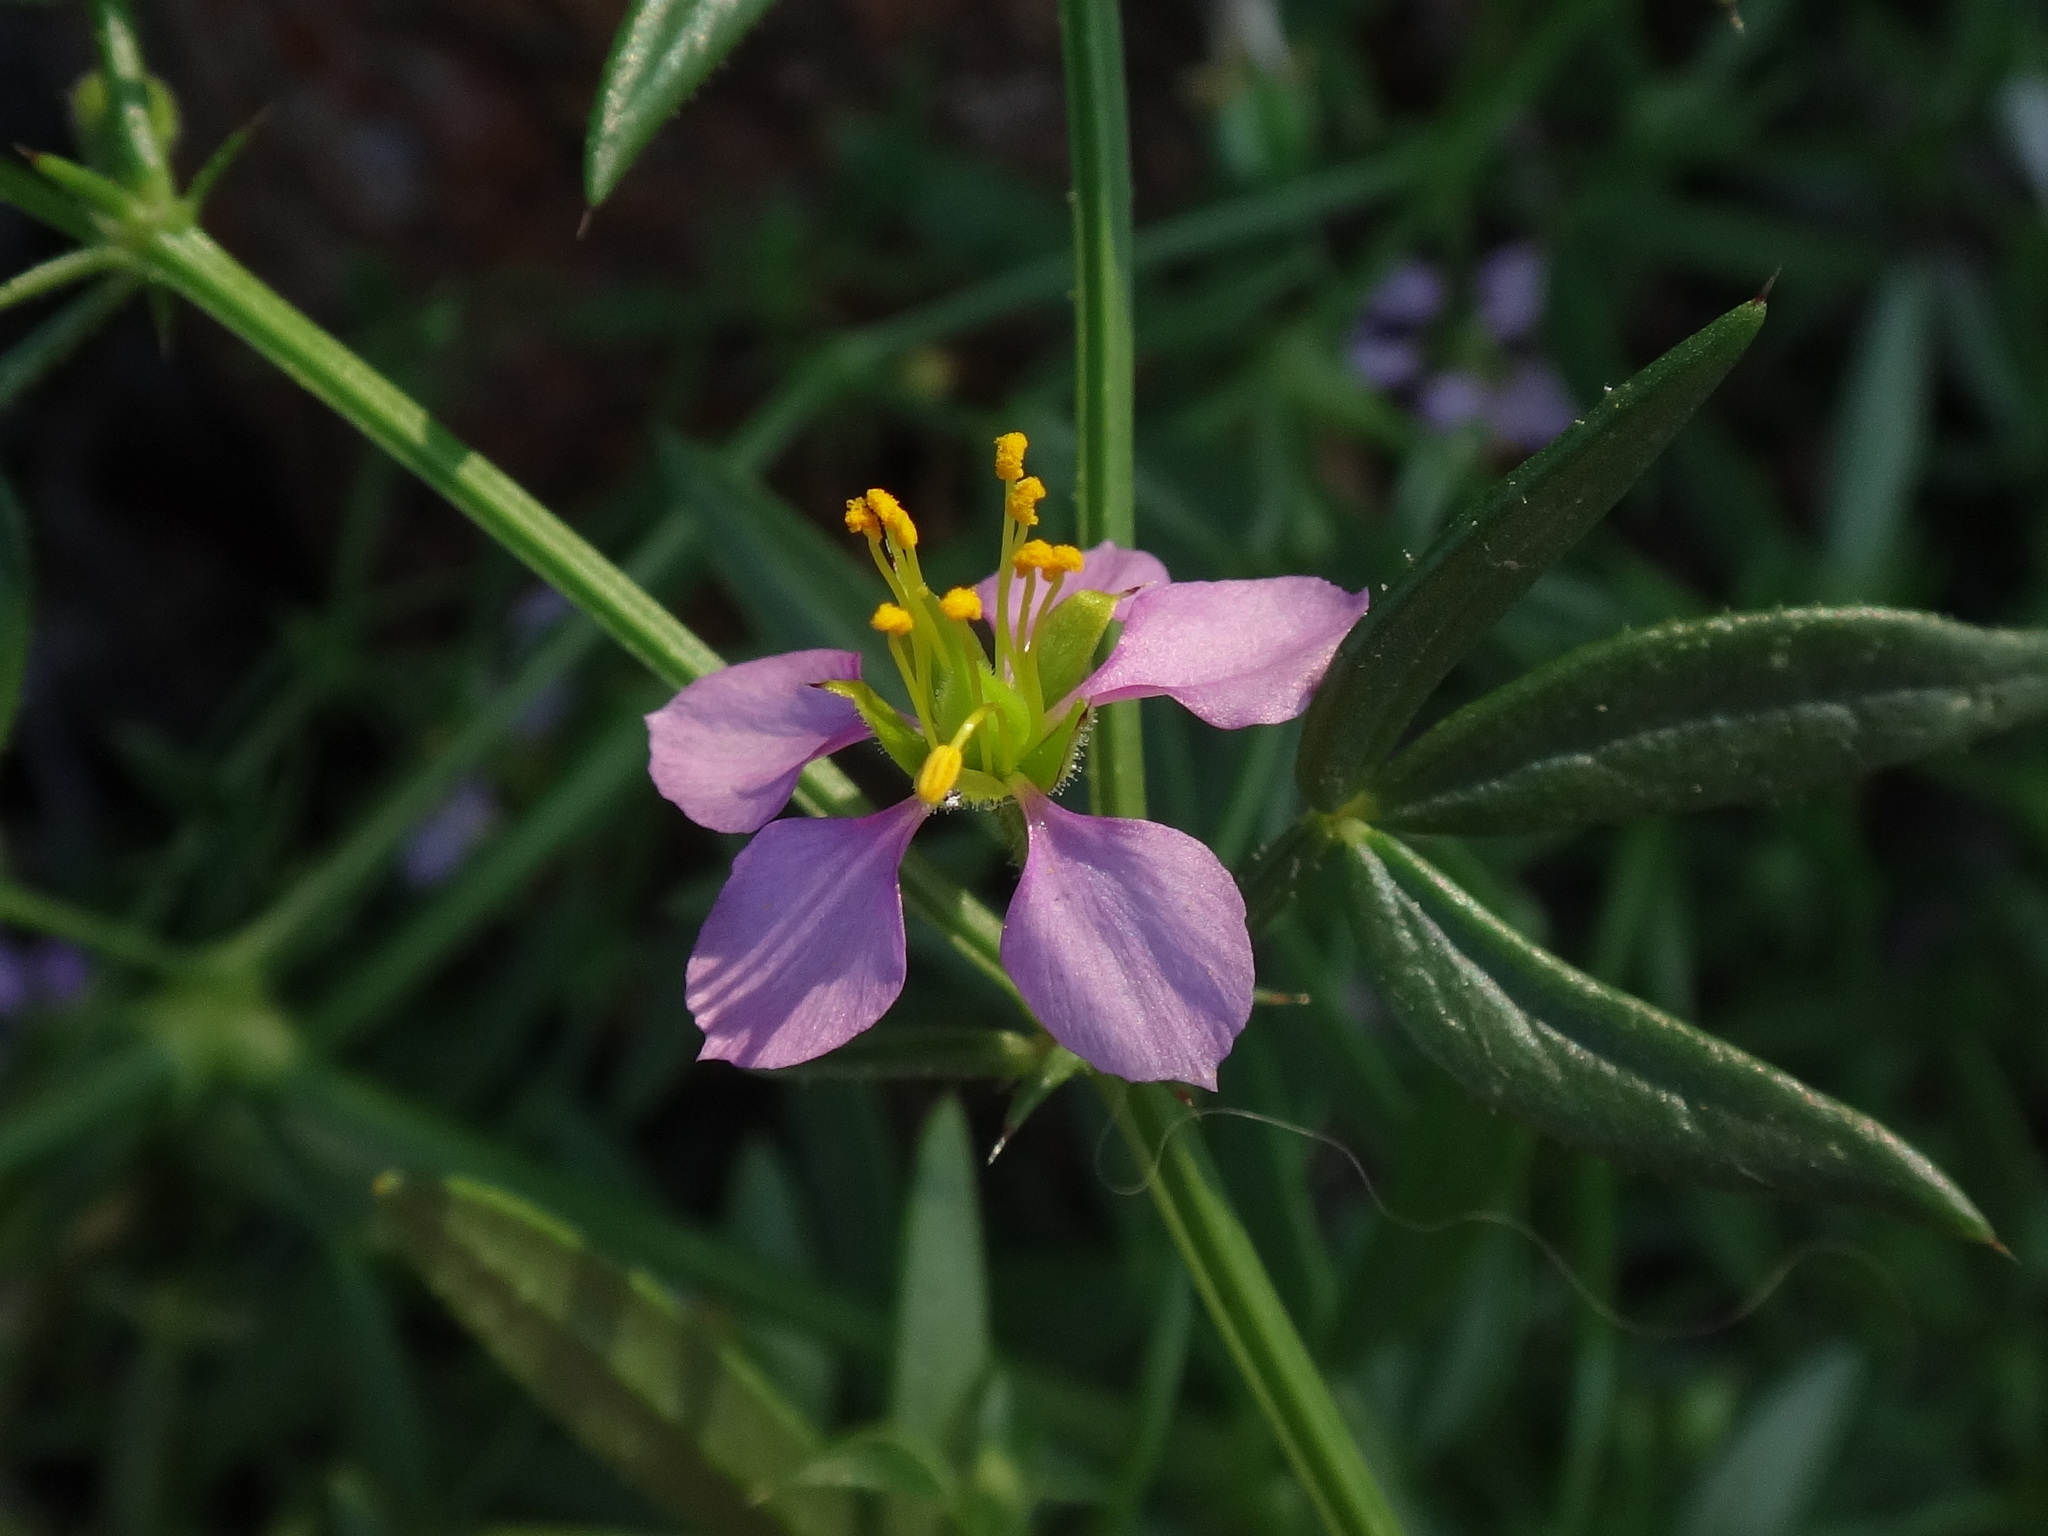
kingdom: Plantae
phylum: Tracheophyta
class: Magnoliopsida
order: Zygophyllales
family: Zygophyllaceae
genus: Fagonia
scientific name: Fagonia cretica
